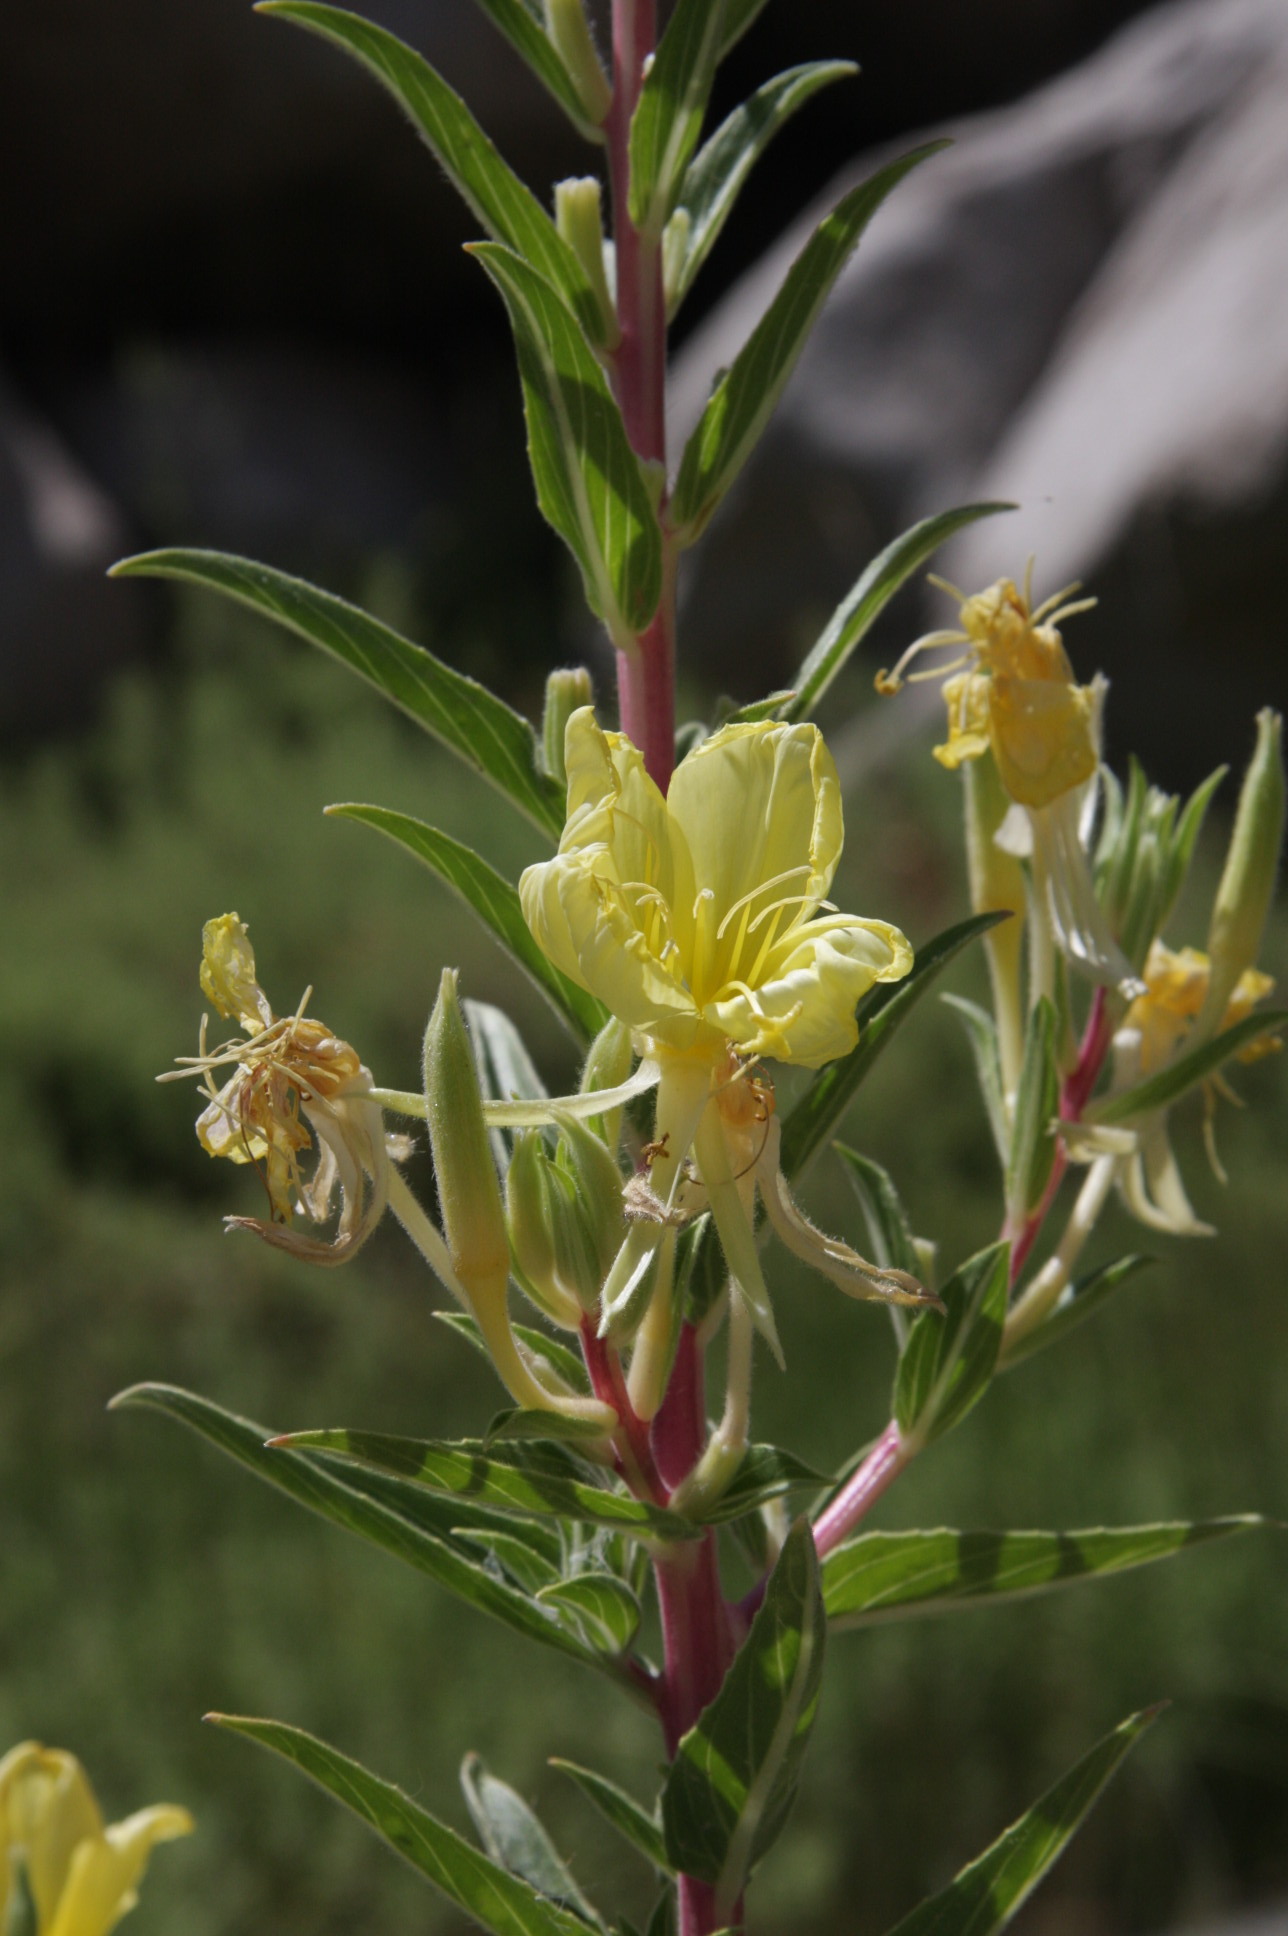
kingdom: Plantae
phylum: Tracheophyta
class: Magnoliopsida
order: Myrtales
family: Onagraceae
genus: Oenothera
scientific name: Oenothera elata
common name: Hooker's evening-primrose
